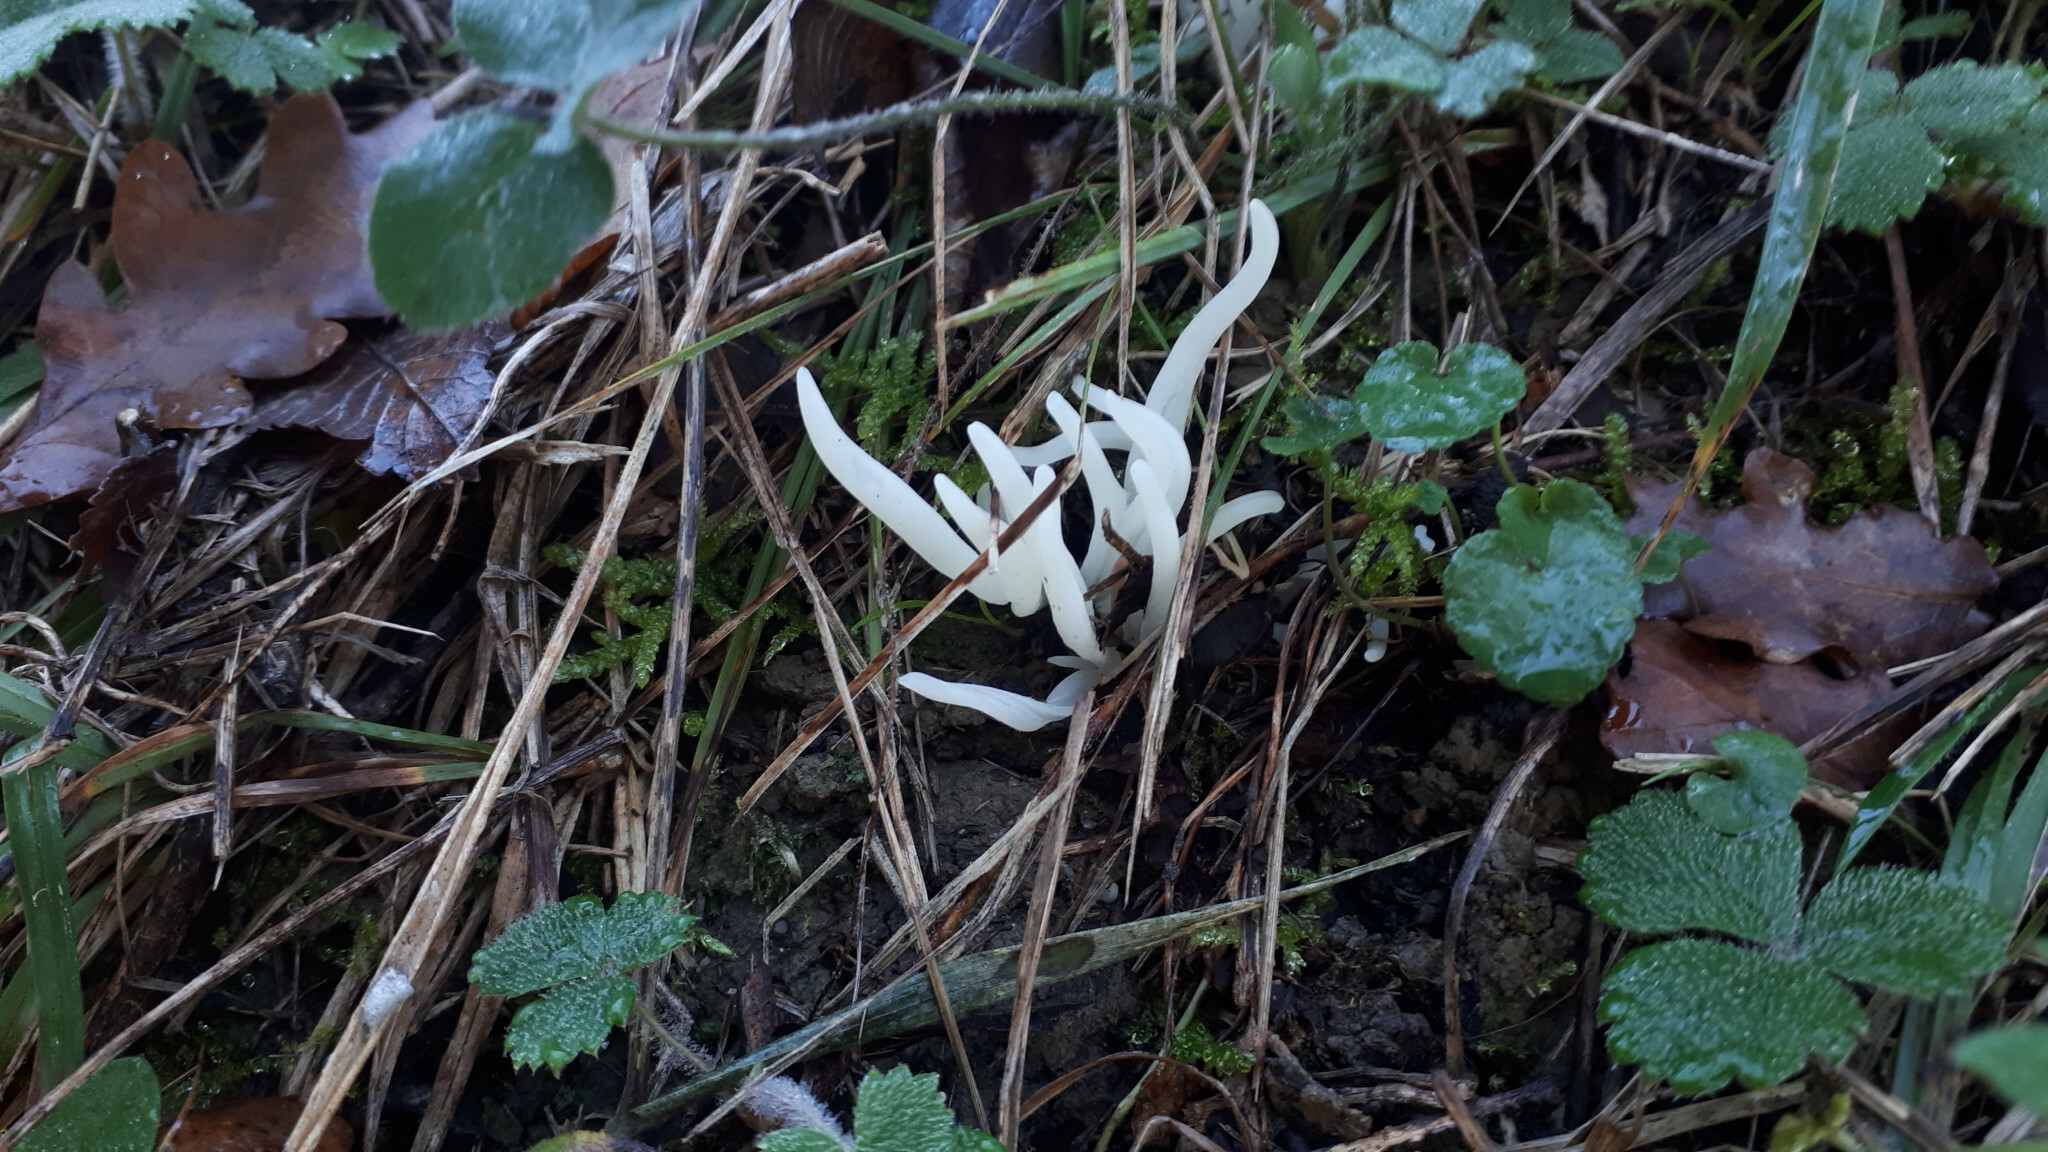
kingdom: Fungi
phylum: Basidiomycota
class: Agaricomycetes
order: Agaricales
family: Clavariaceae
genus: Clavaria
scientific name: Clavaria fragilis
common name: White spindles
